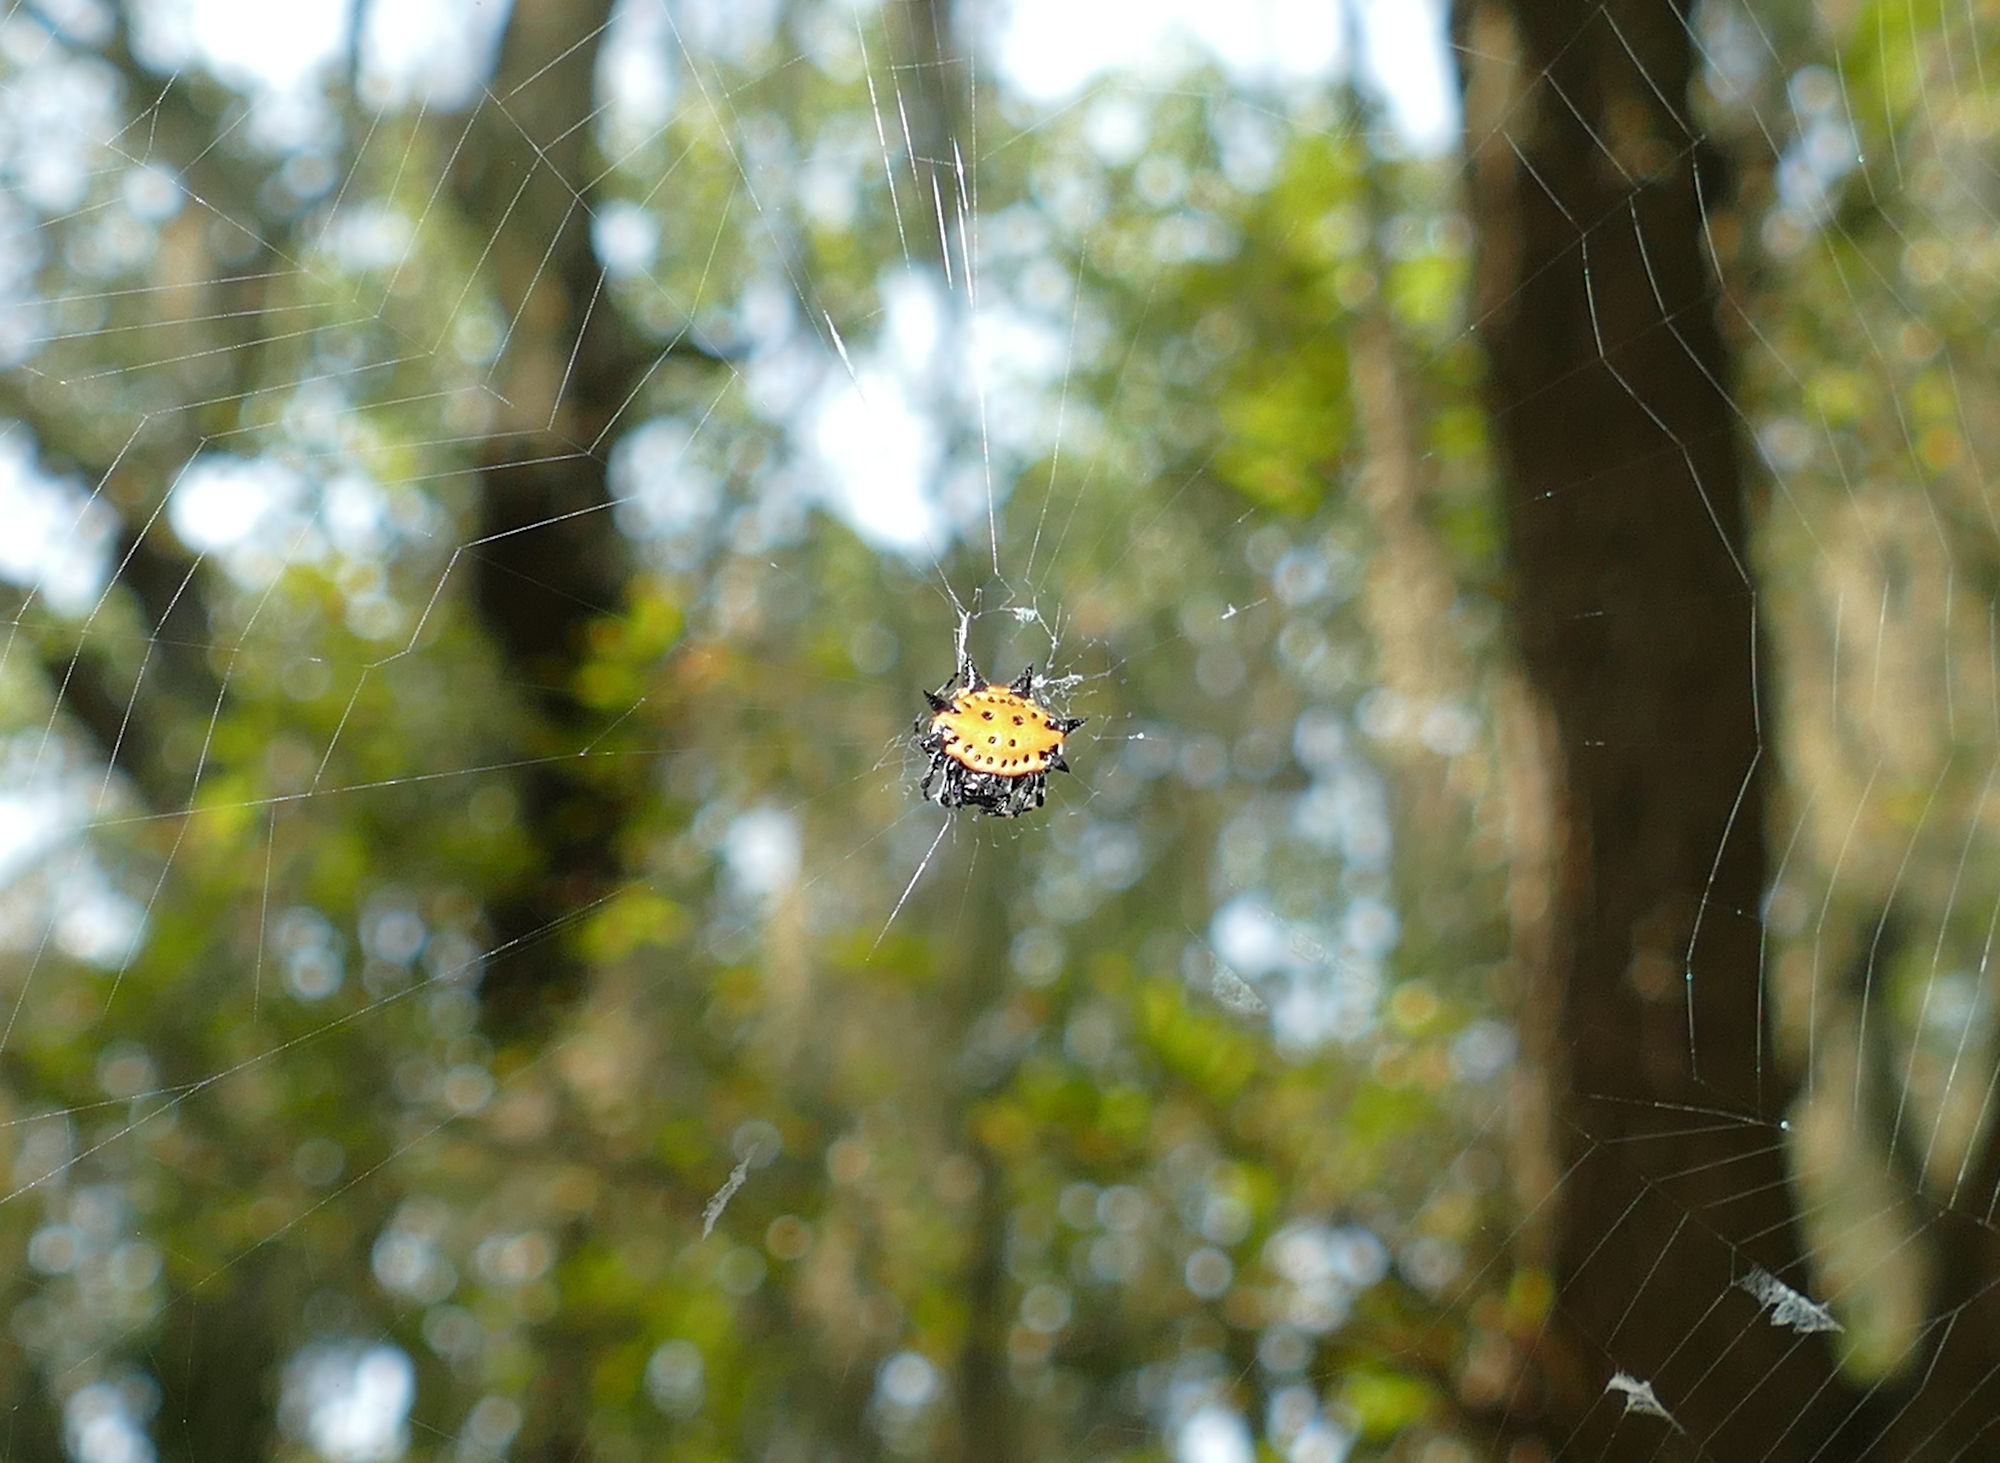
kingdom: Animalia
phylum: Arthropoda
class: Arachnida
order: Araneae
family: Araneidae
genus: Gasteracantha
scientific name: Gasteracantha cancriformis
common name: Orb weavers
